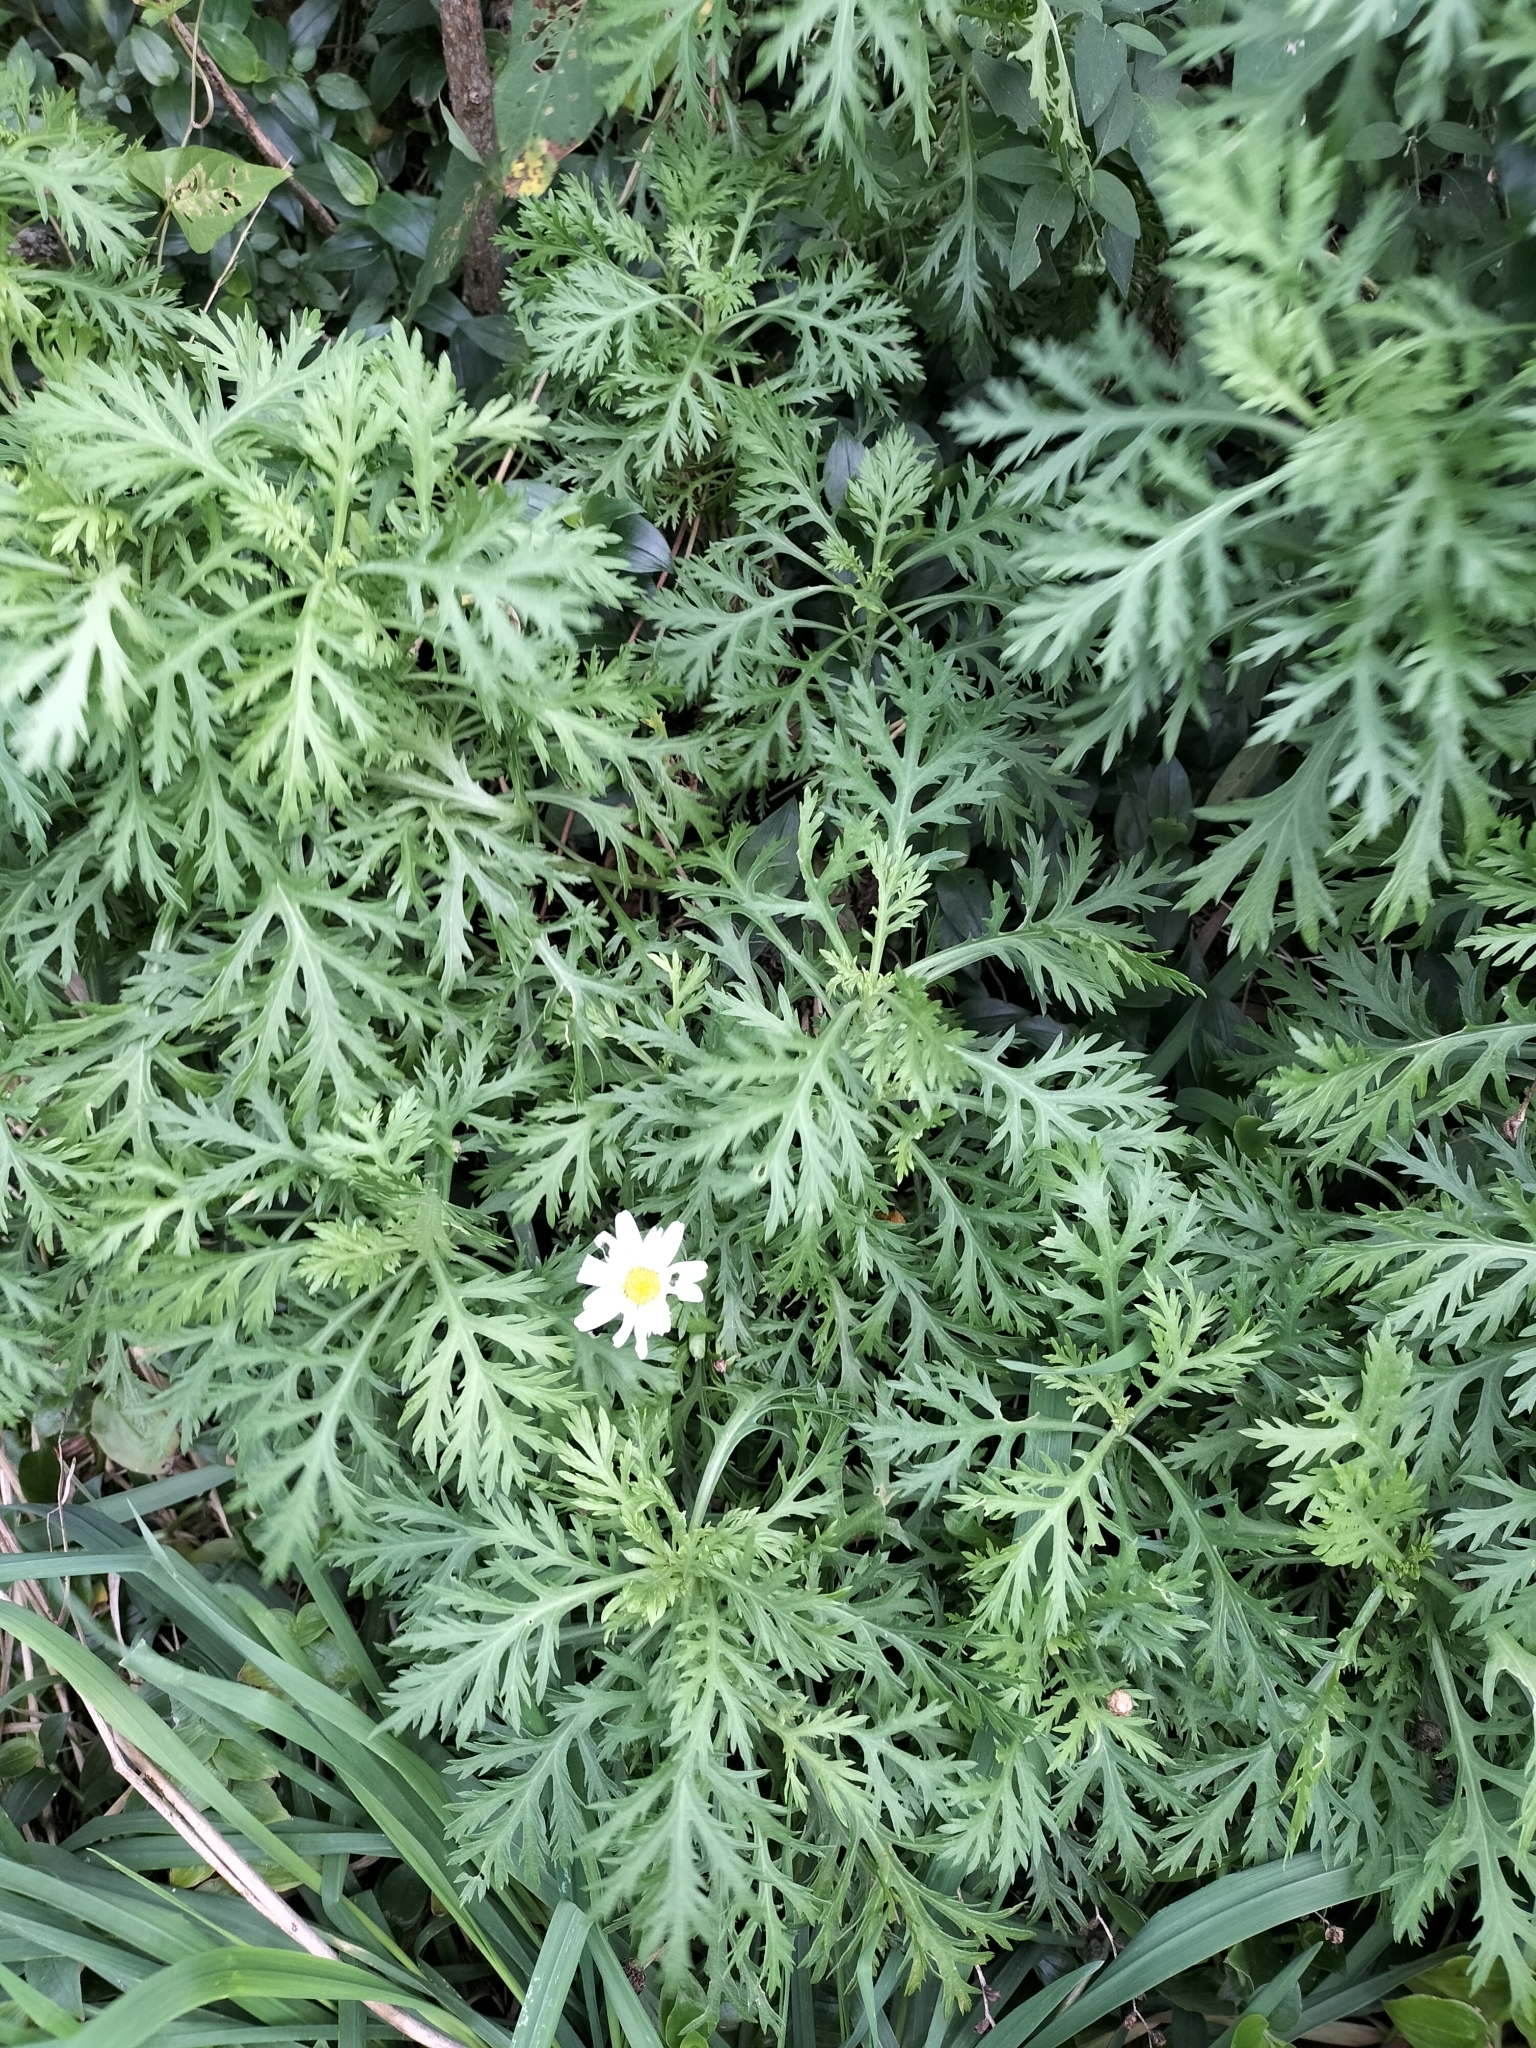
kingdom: Plantae
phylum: Tracheophyta
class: Magnoliopsida
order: Asterales
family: Asteraceae
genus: Argyranthemum
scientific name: Argyranthemum frutescens
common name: Paris daisy
